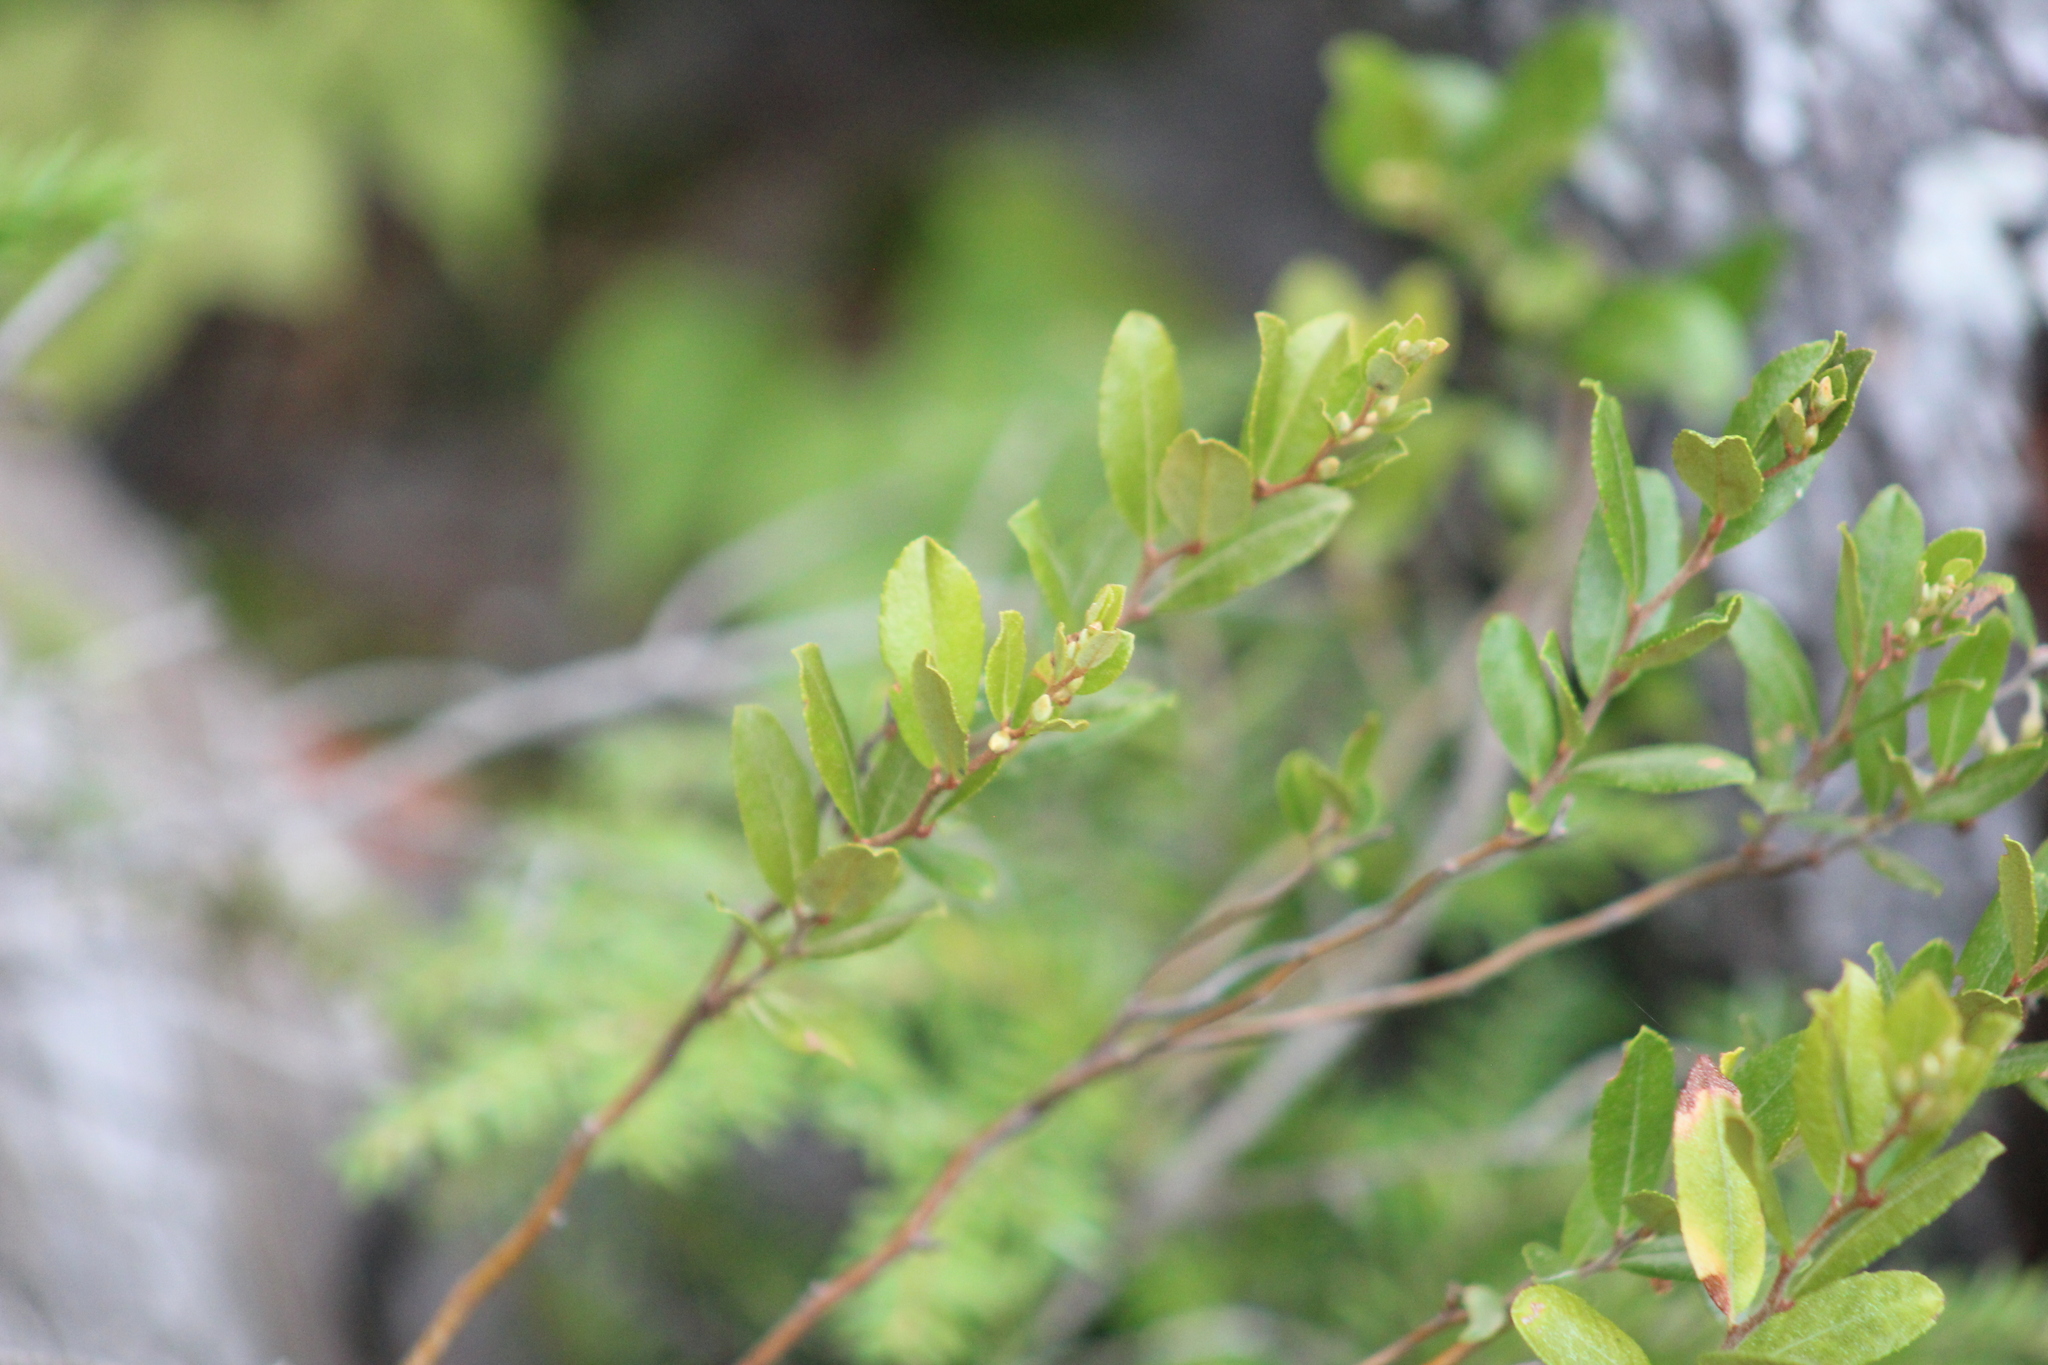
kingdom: Plantae
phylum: Tracheophyta
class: Magnoliopsida
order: Ericales
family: Ericaceae
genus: Chamaedaphne
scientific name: Chamaedaphne calyculata
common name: Leatherleaf
